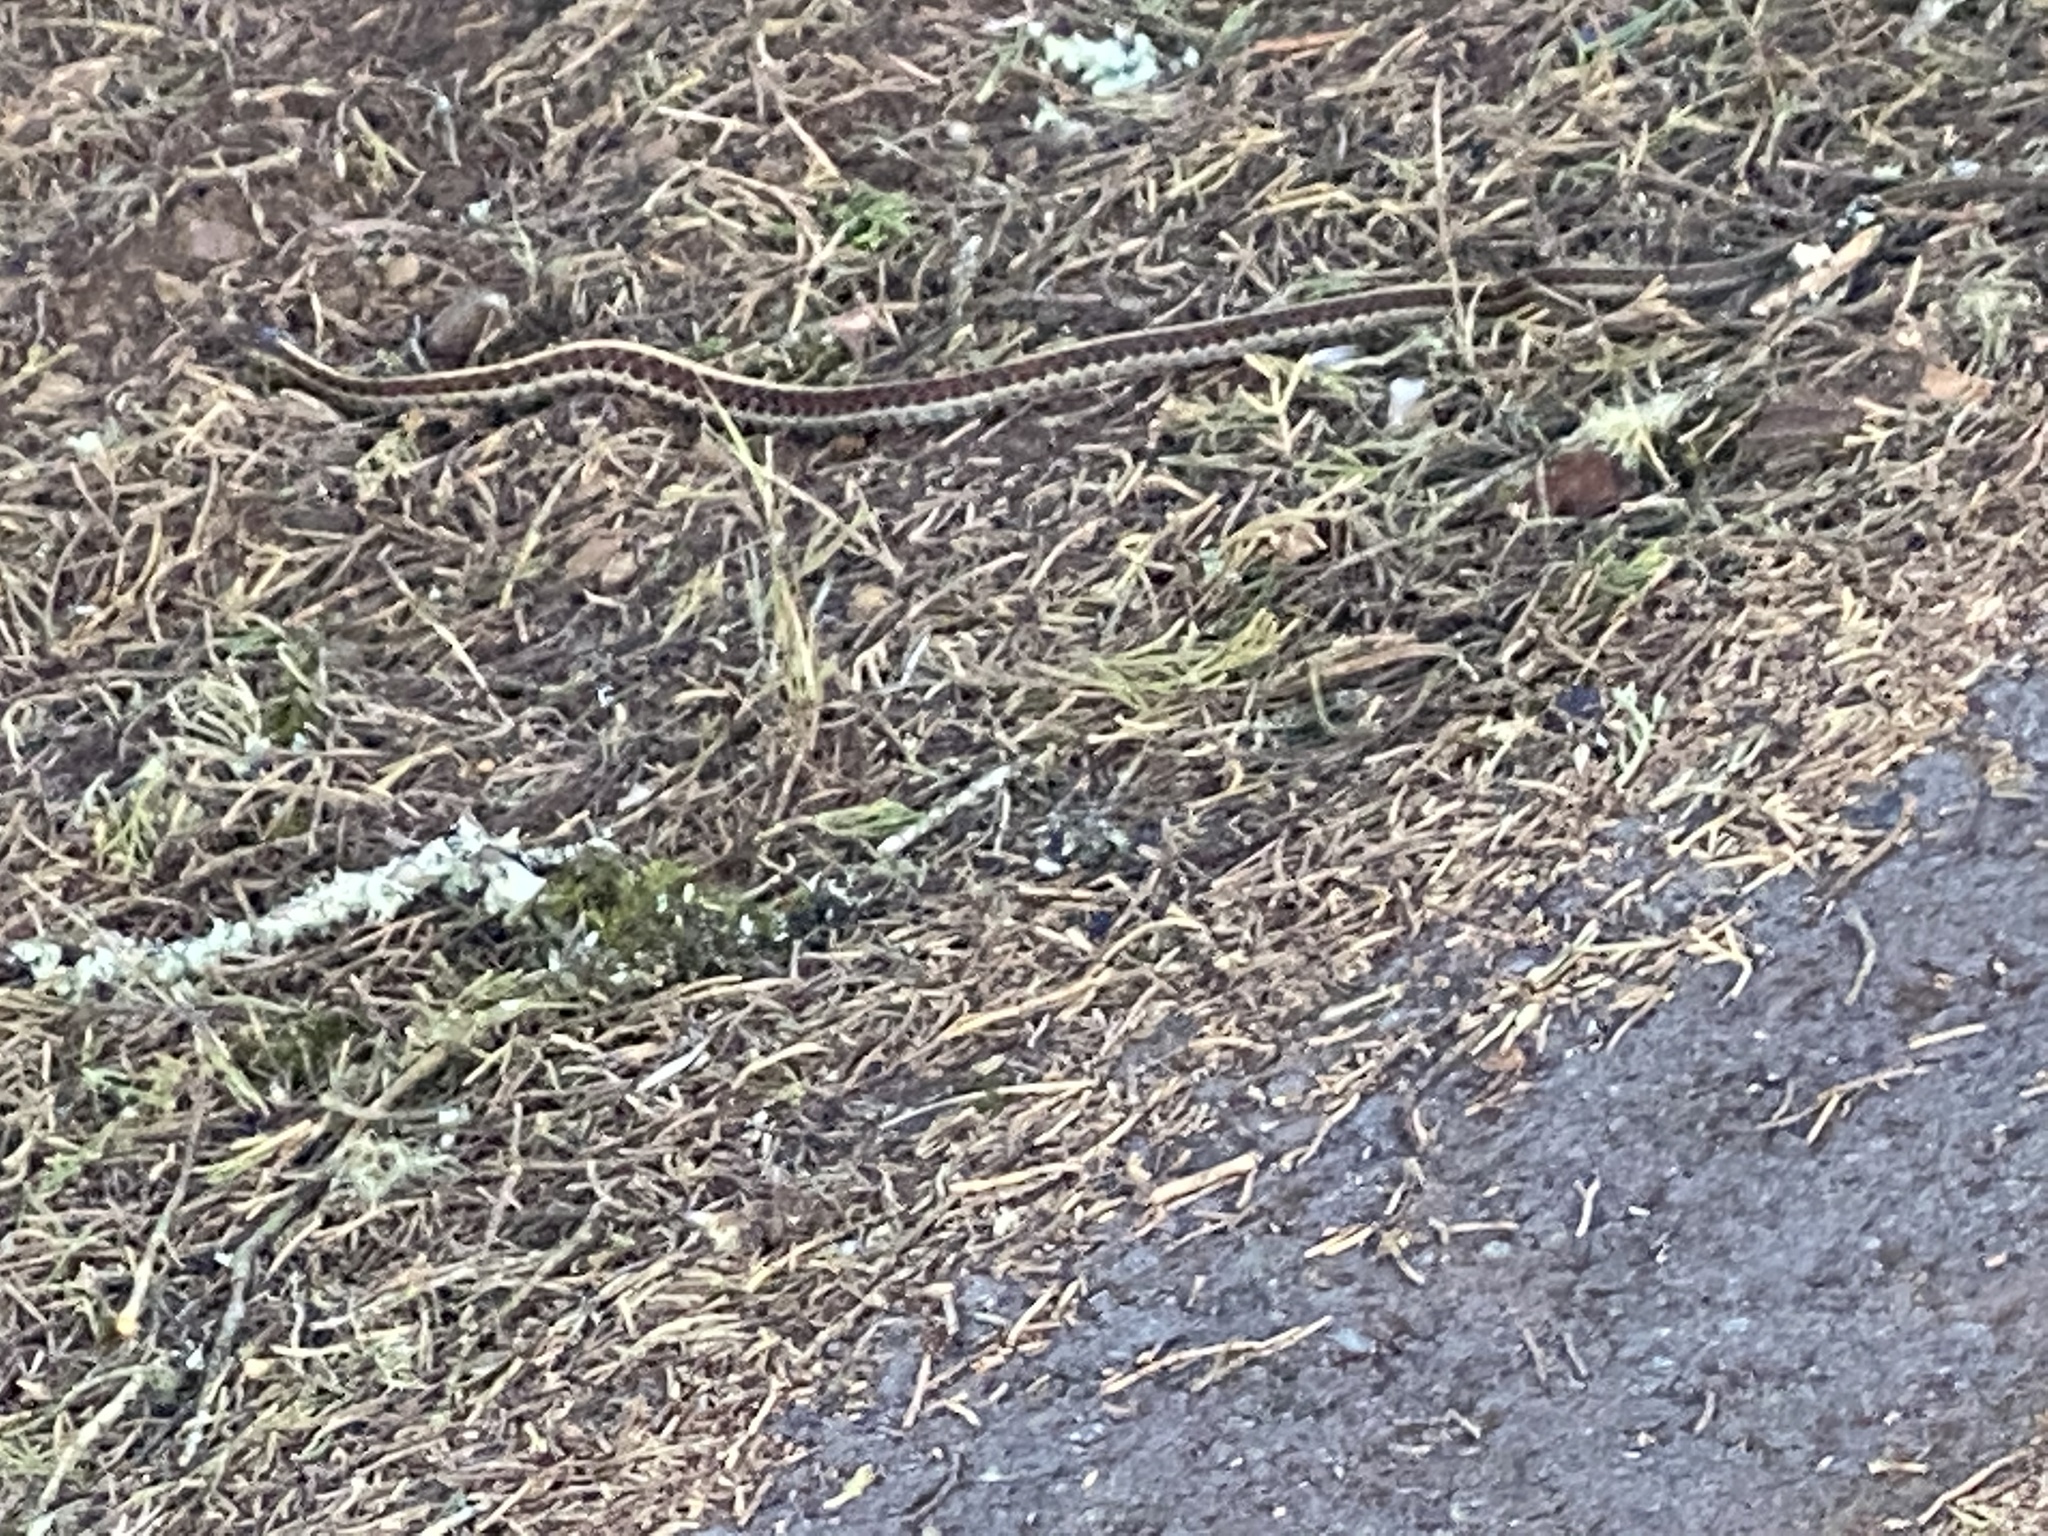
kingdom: Animalia
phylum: Chordata
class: Squamata
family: Colubridae
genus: Thamnophis
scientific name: Thamnophis elegans
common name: Western terrestrial garter snake
